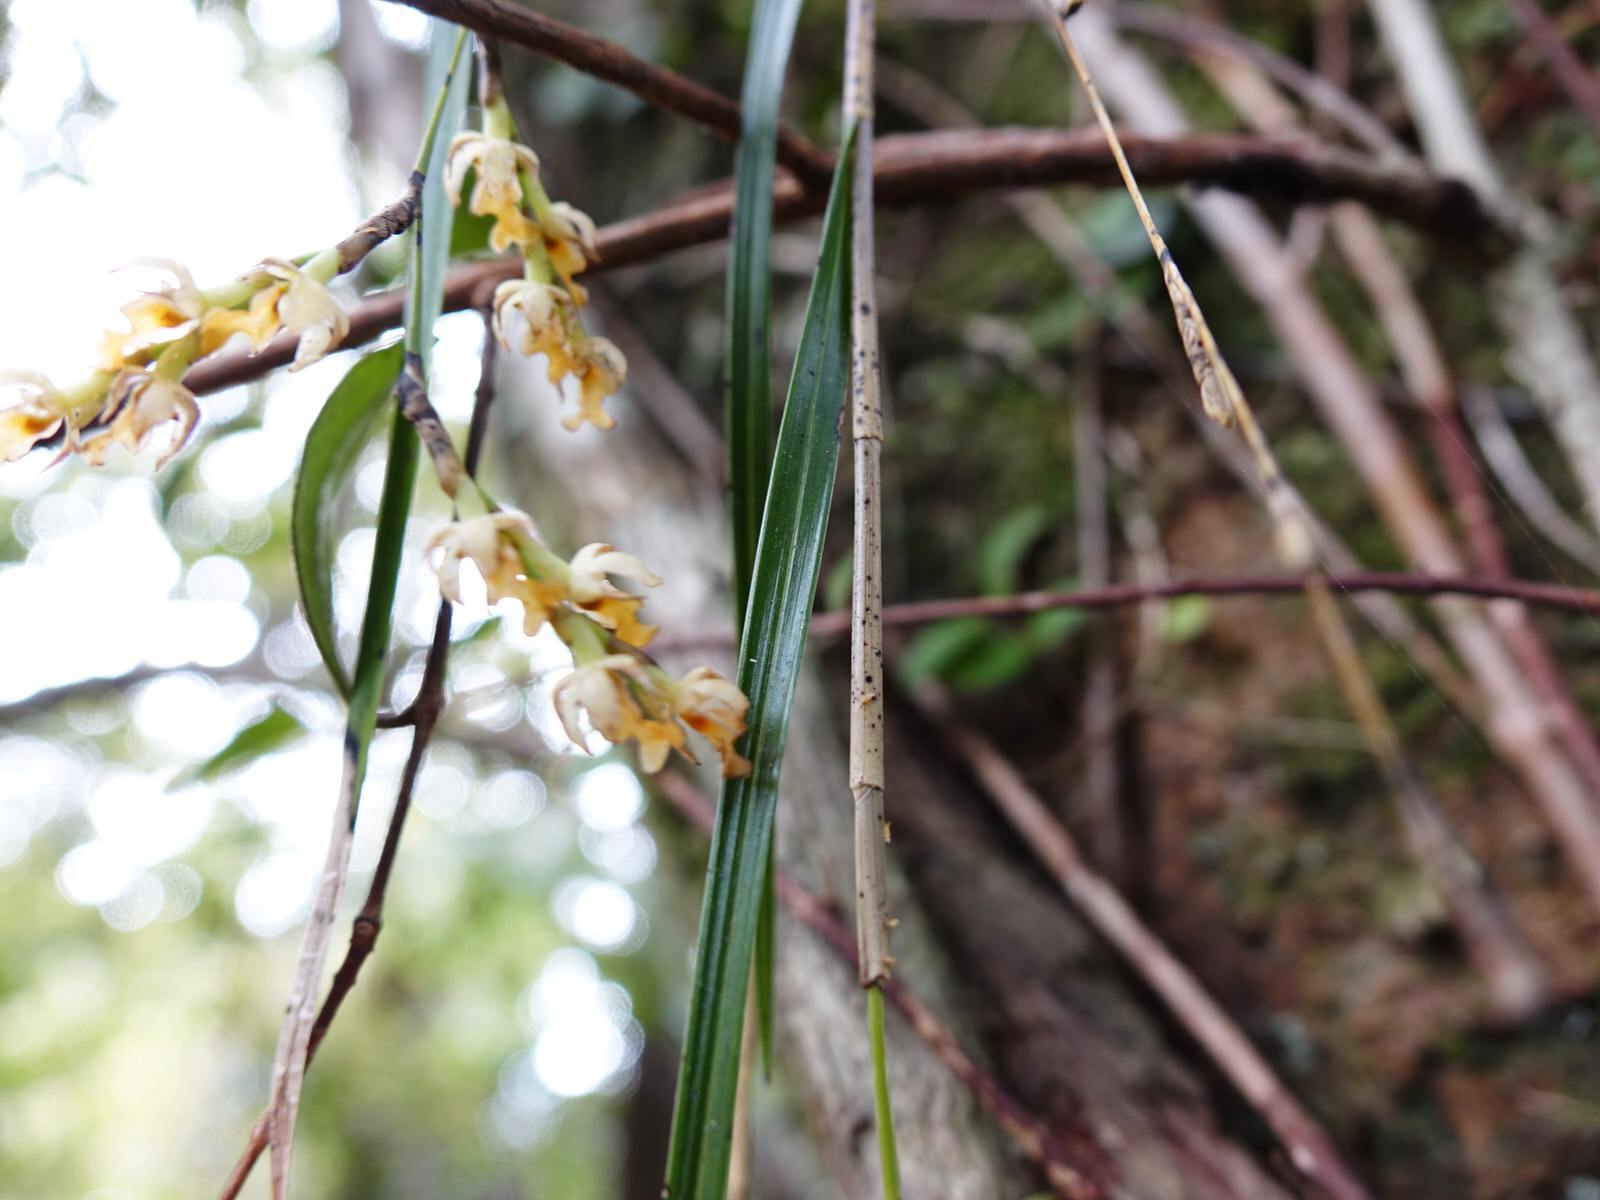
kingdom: Plantae
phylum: Tracheophyta
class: Liliopsida
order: Asparagales
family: Orchidaceae
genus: Earina
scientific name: Earina mucronata
